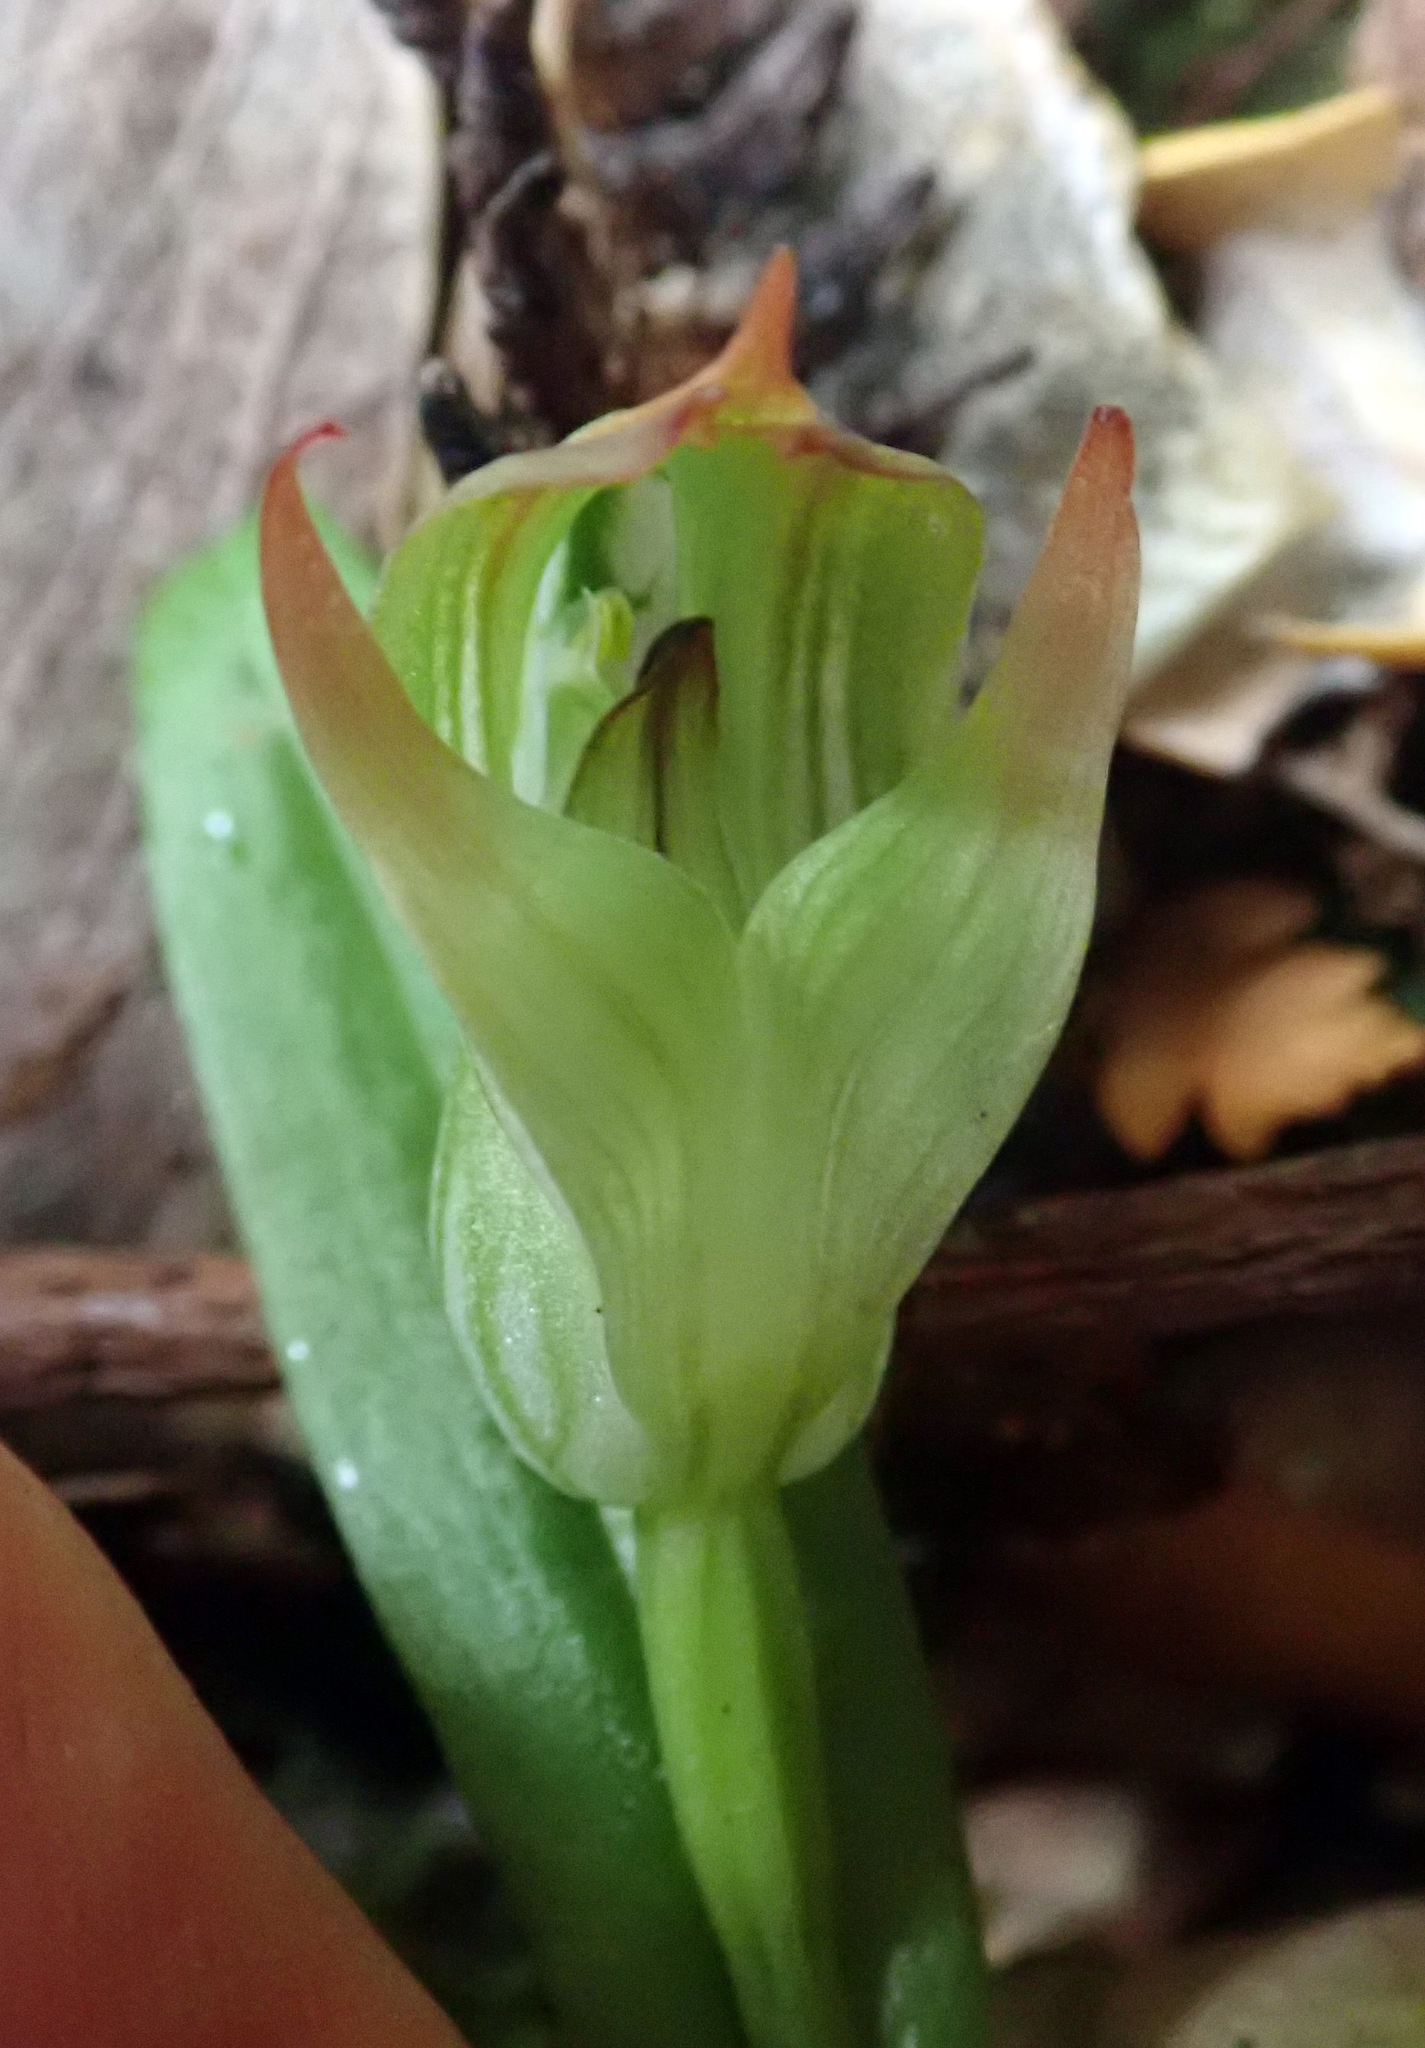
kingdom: Plantae
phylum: Tracheophyta
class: Liliopsida
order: Asparagales
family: Orchidaceae
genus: Pterostylis
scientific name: Pterostylis silvicultrix
